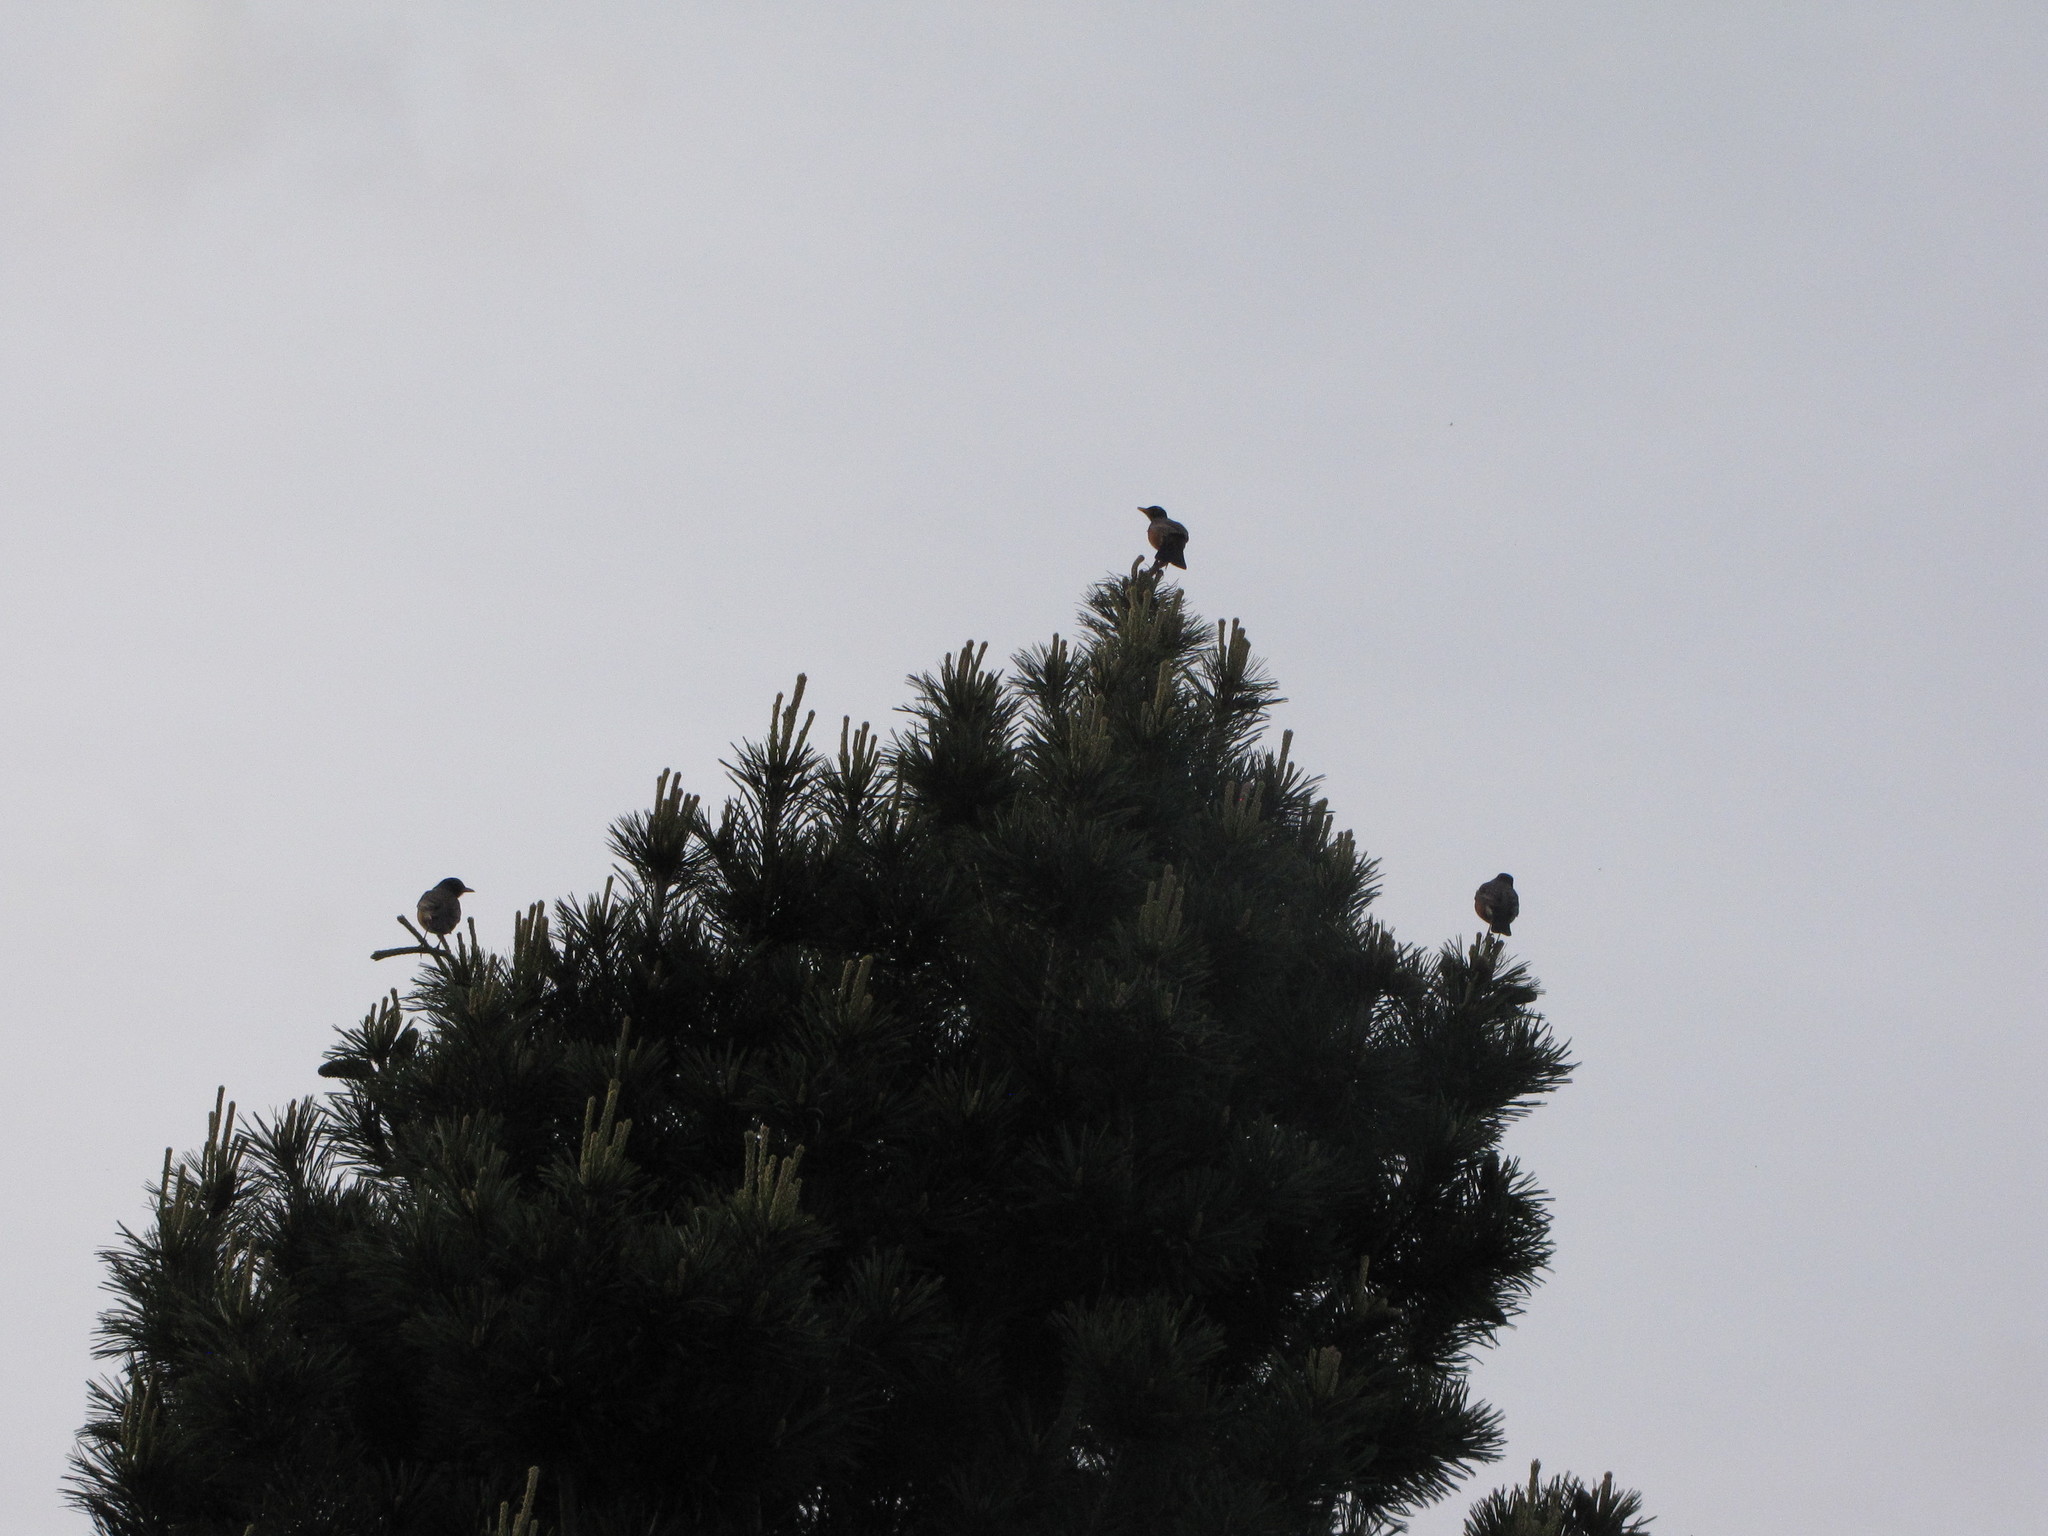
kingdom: Animalia
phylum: Chordata
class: Aves
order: Passeriformes
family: Turdidae
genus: Turdus
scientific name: Turdus migratorius
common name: American robin
